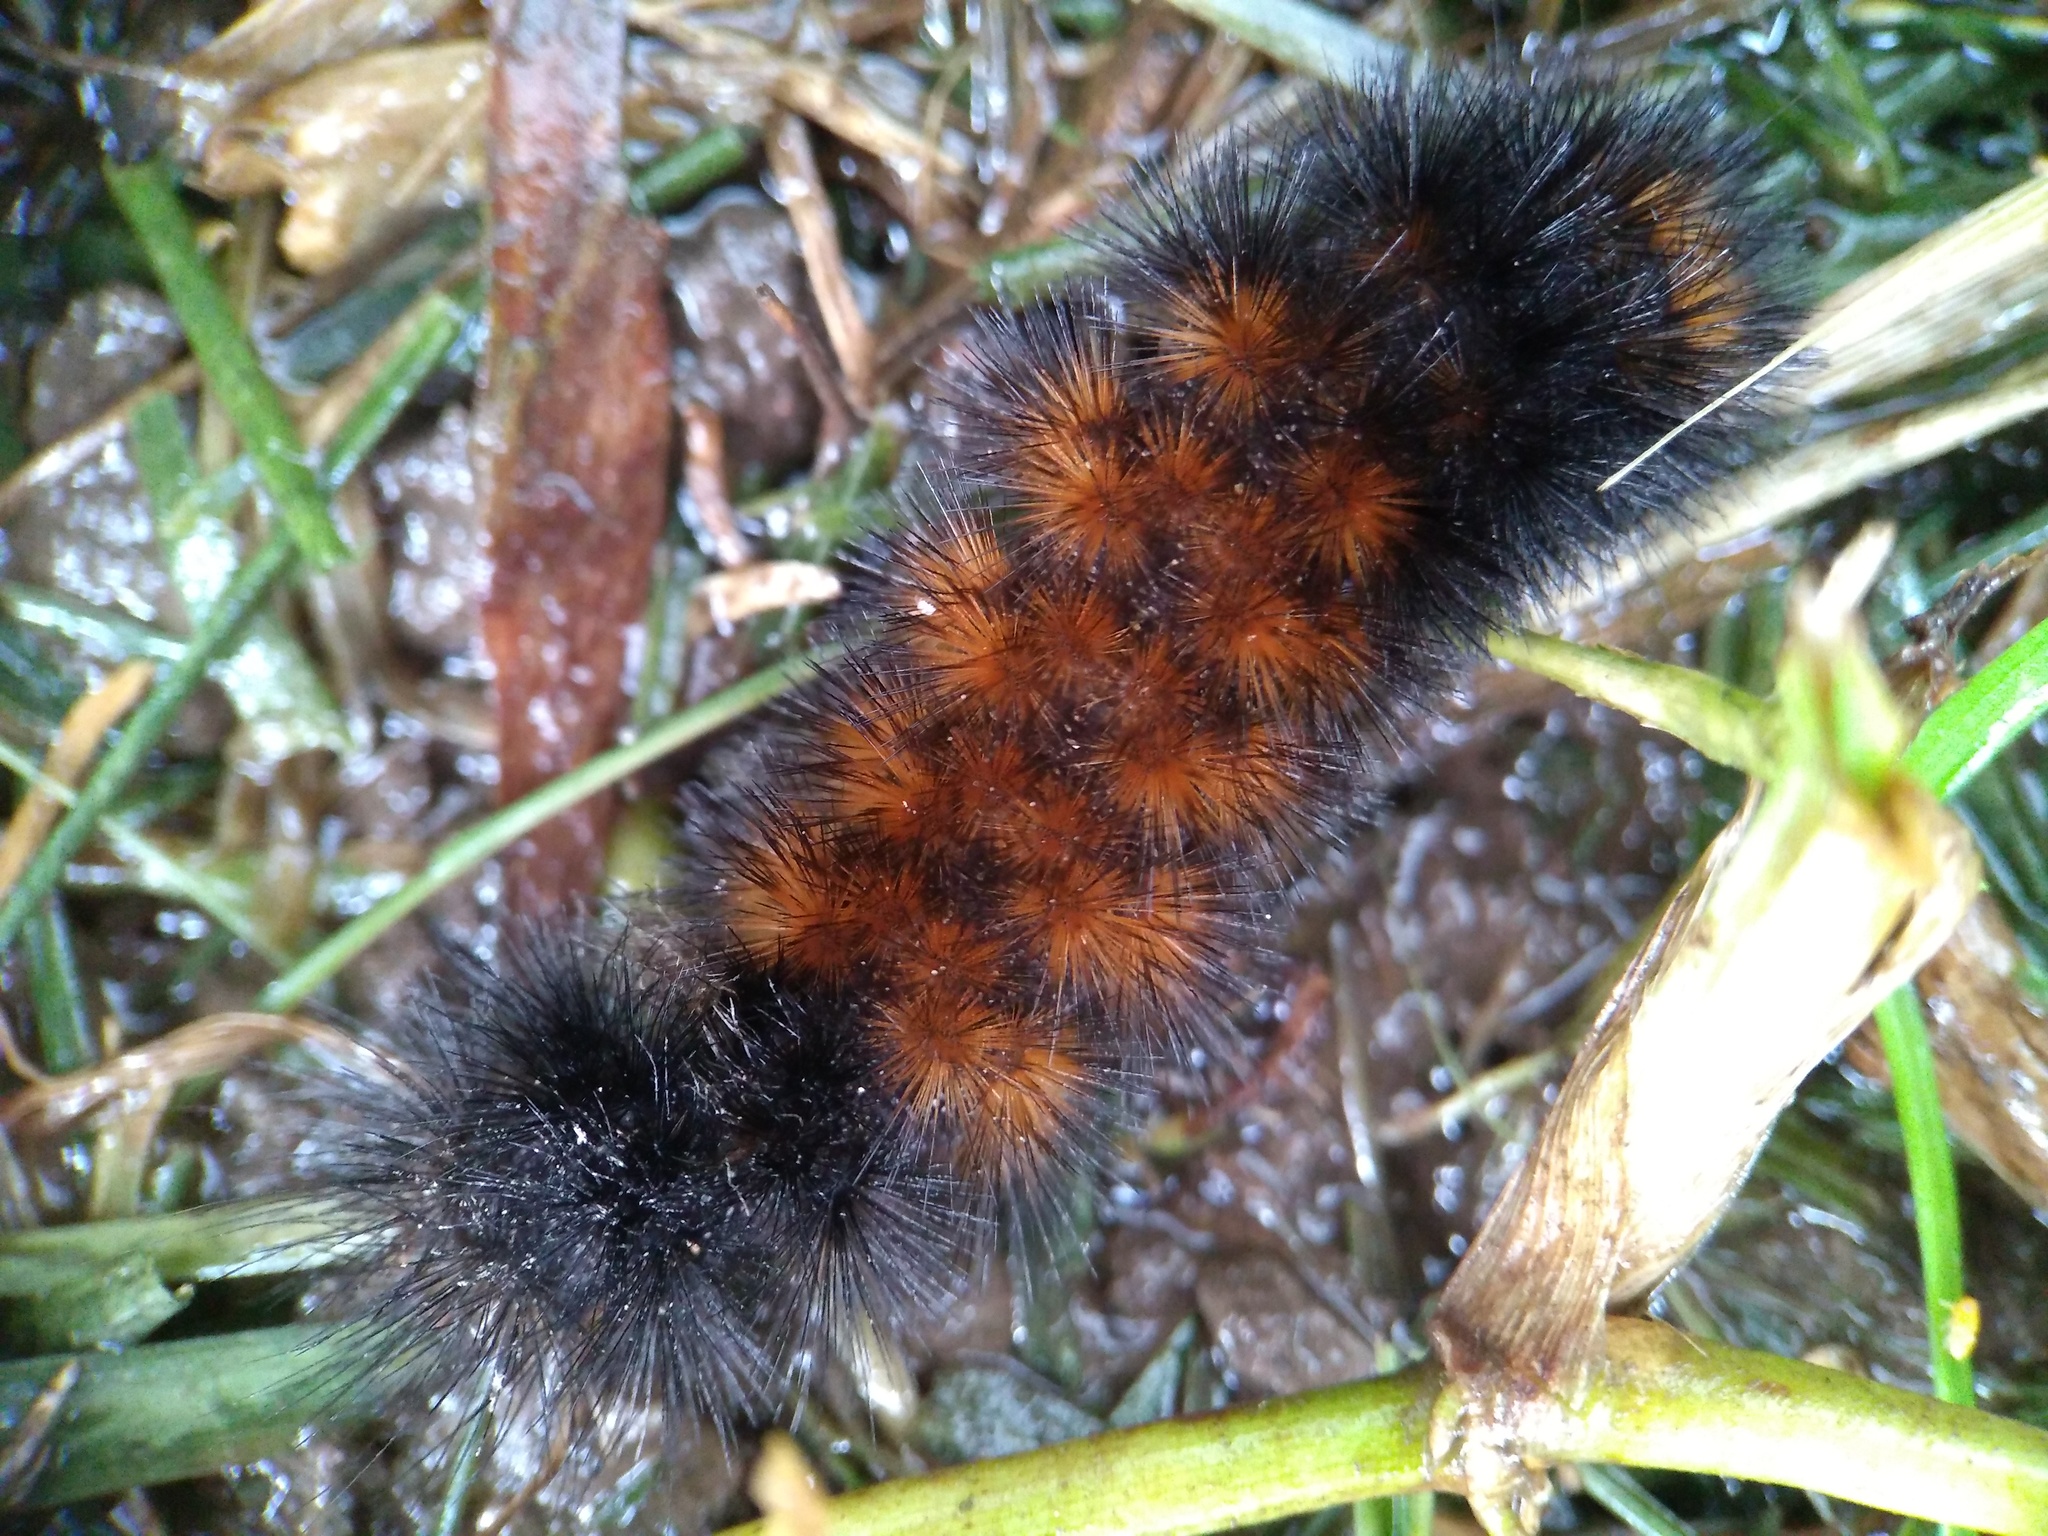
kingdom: Animalia
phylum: Arthropoda
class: Insecta
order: Lepidoptera
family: Erebidae
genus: Pyrrharctia
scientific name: Pyrrharctia isabella
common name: Isabella tiger moth
